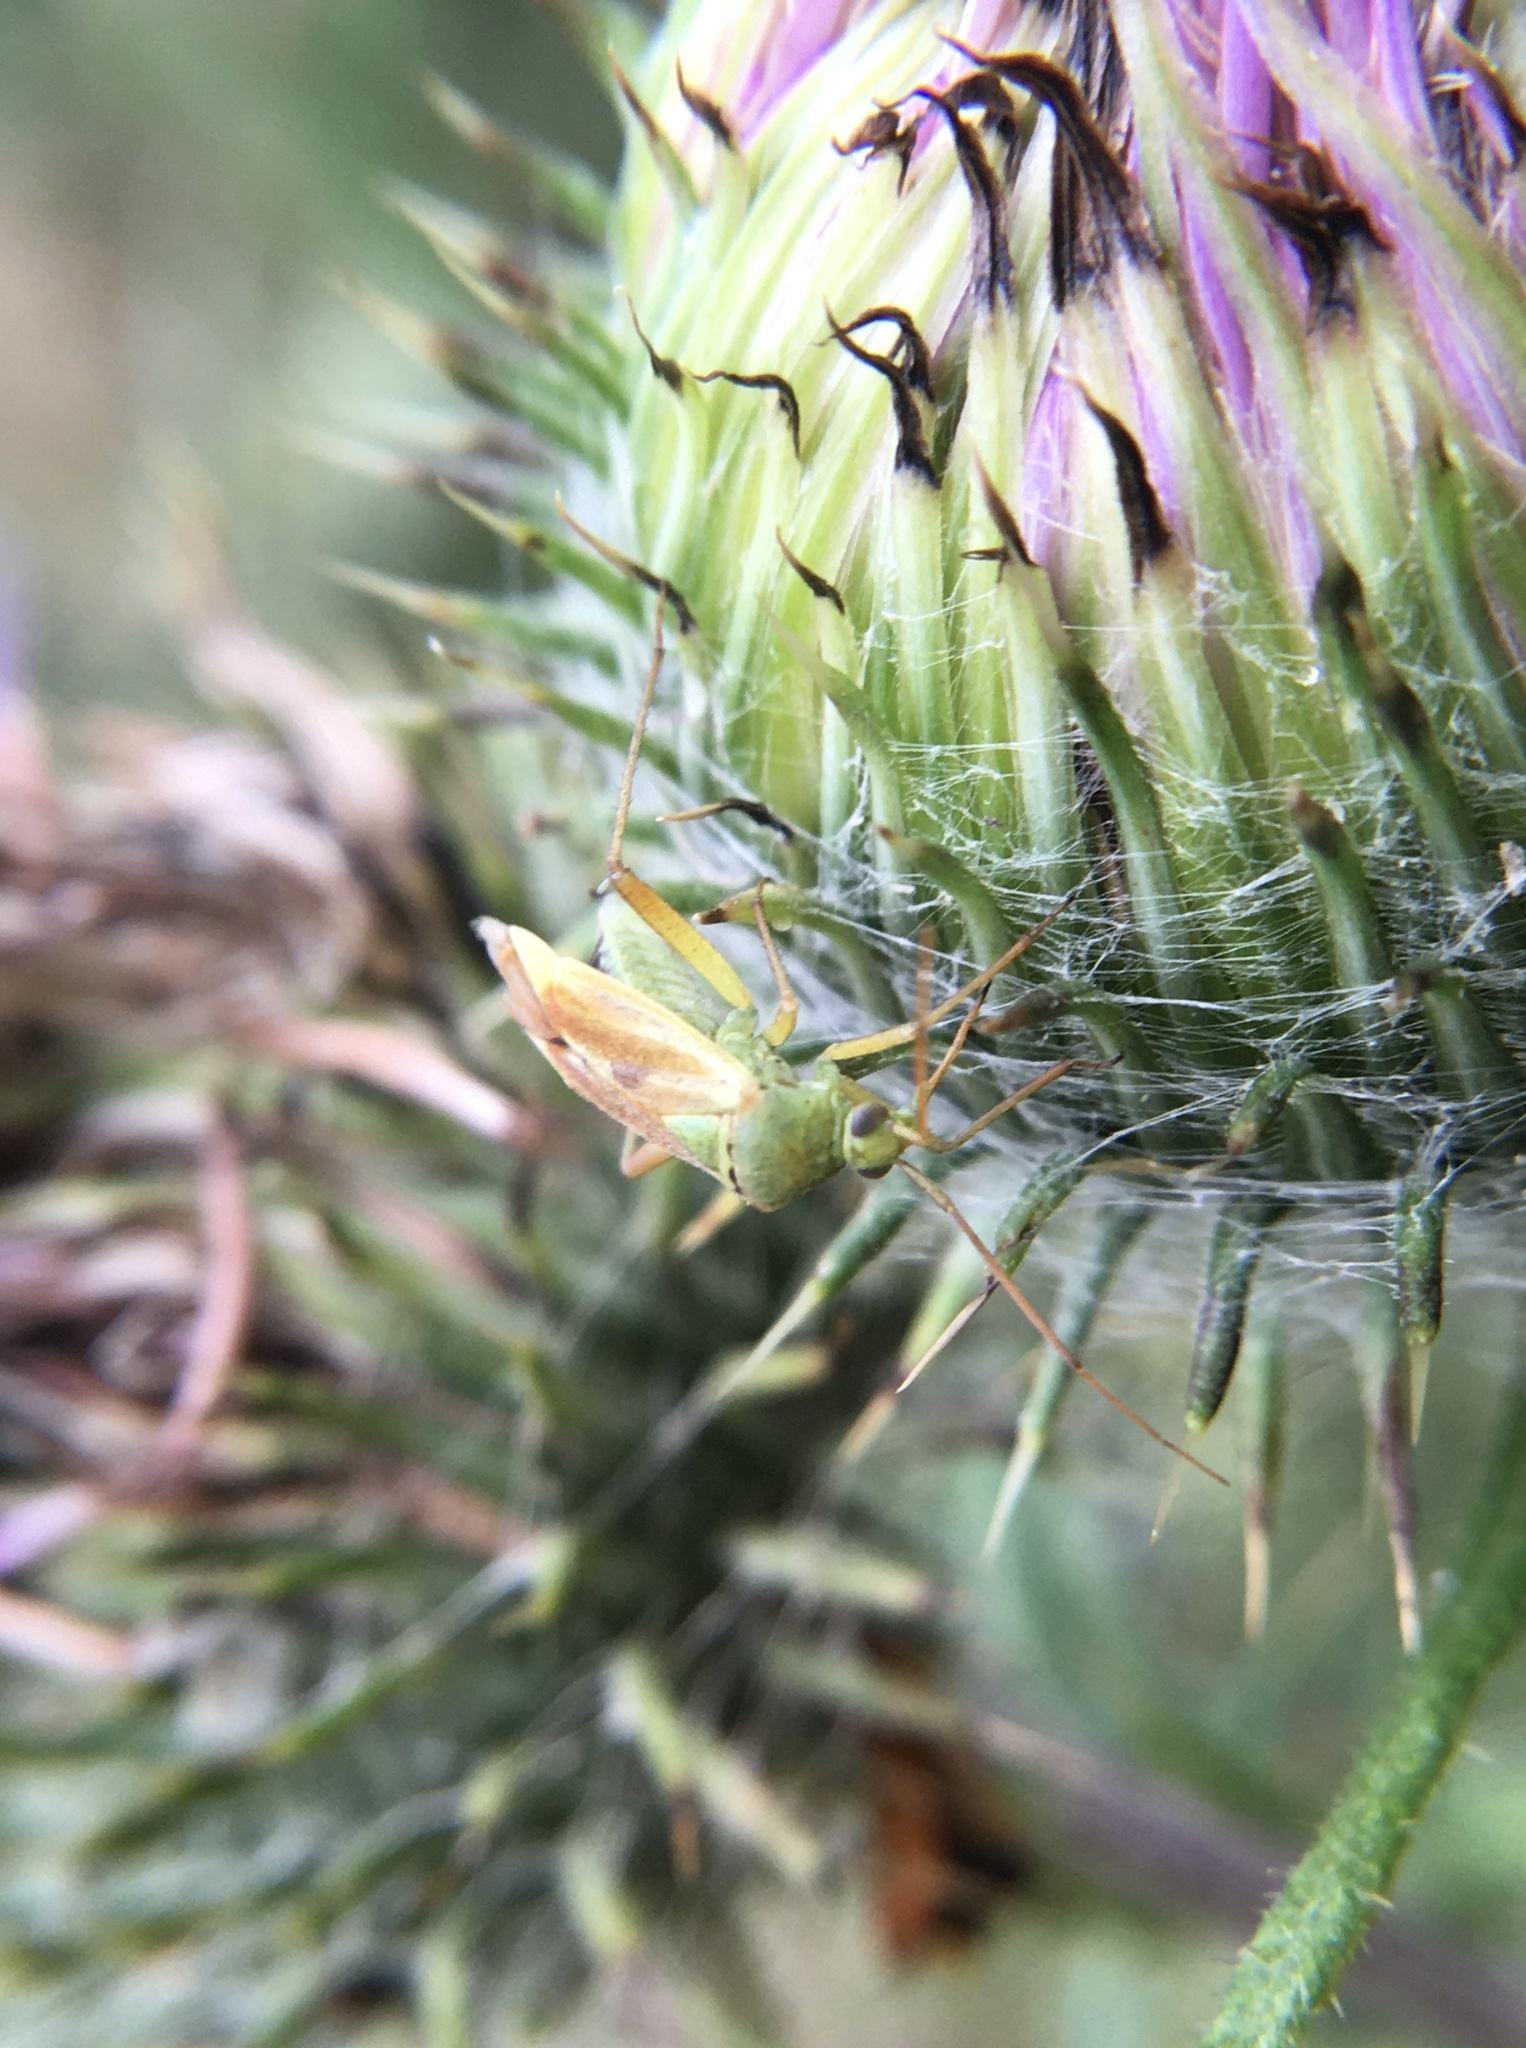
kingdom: Animalia
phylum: Arthropoda
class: Insecta
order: Hemiptera
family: Miridae
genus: Closterotomus
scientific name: Closterotomus norvegicus
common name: Plant bug
